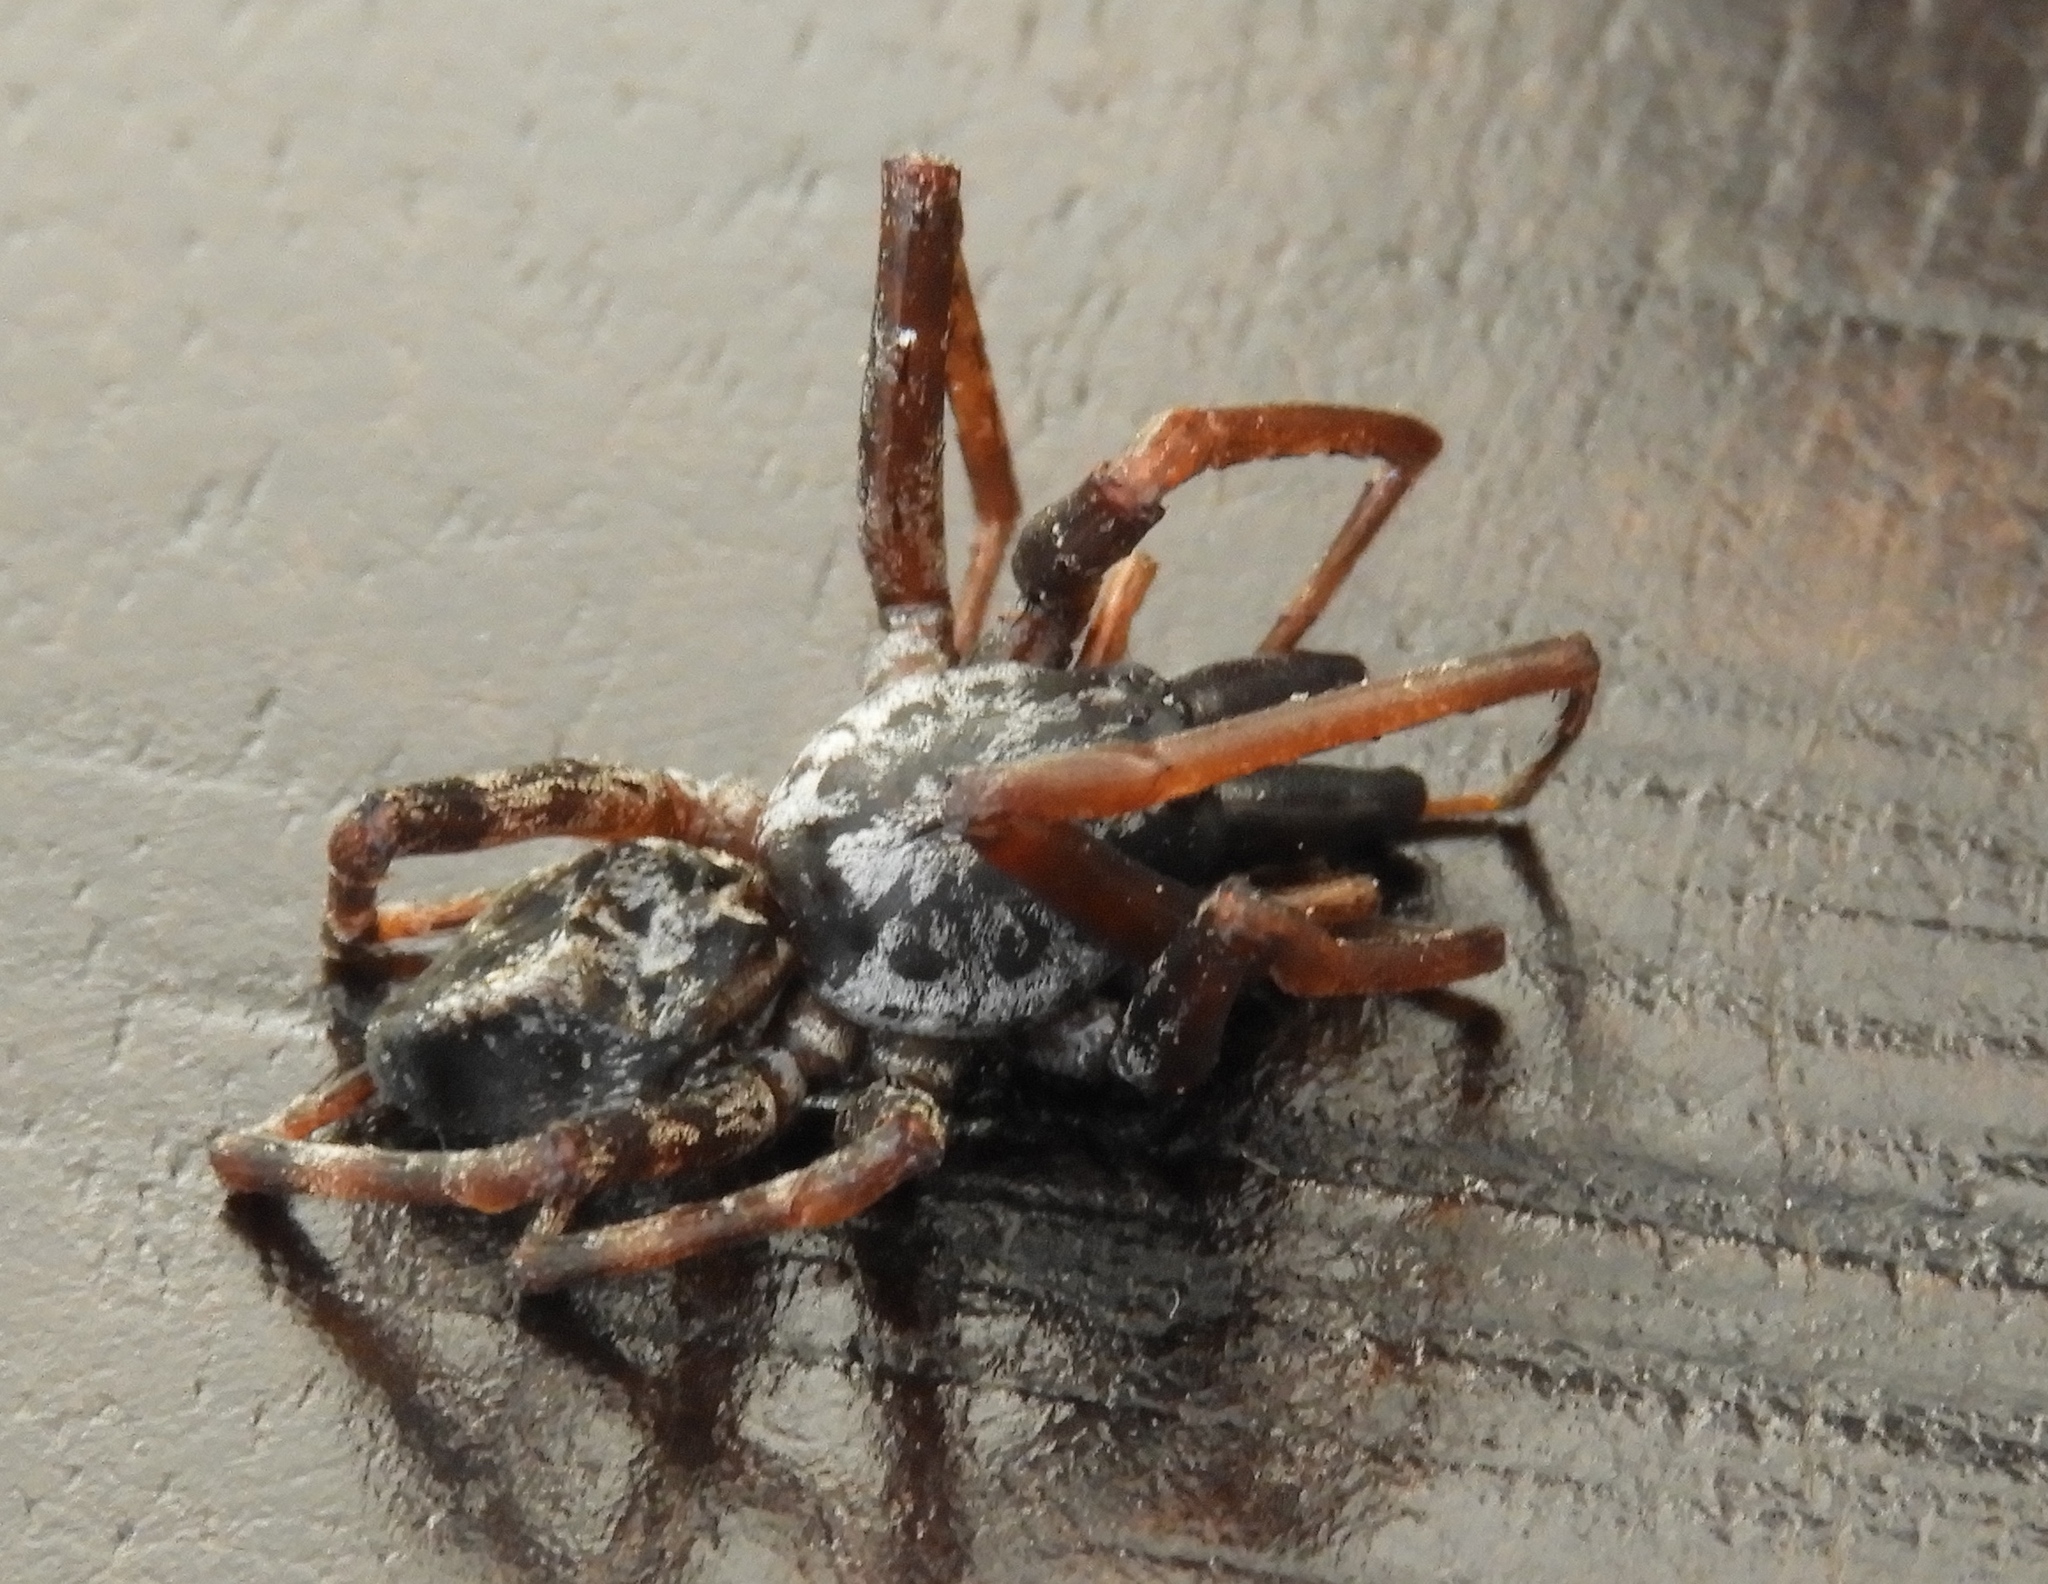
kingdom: Animalia
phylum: Arthropoda
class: Arachnida
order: Araneae
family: Corinnidae
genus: Megalostrata
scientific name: Megalostrata
